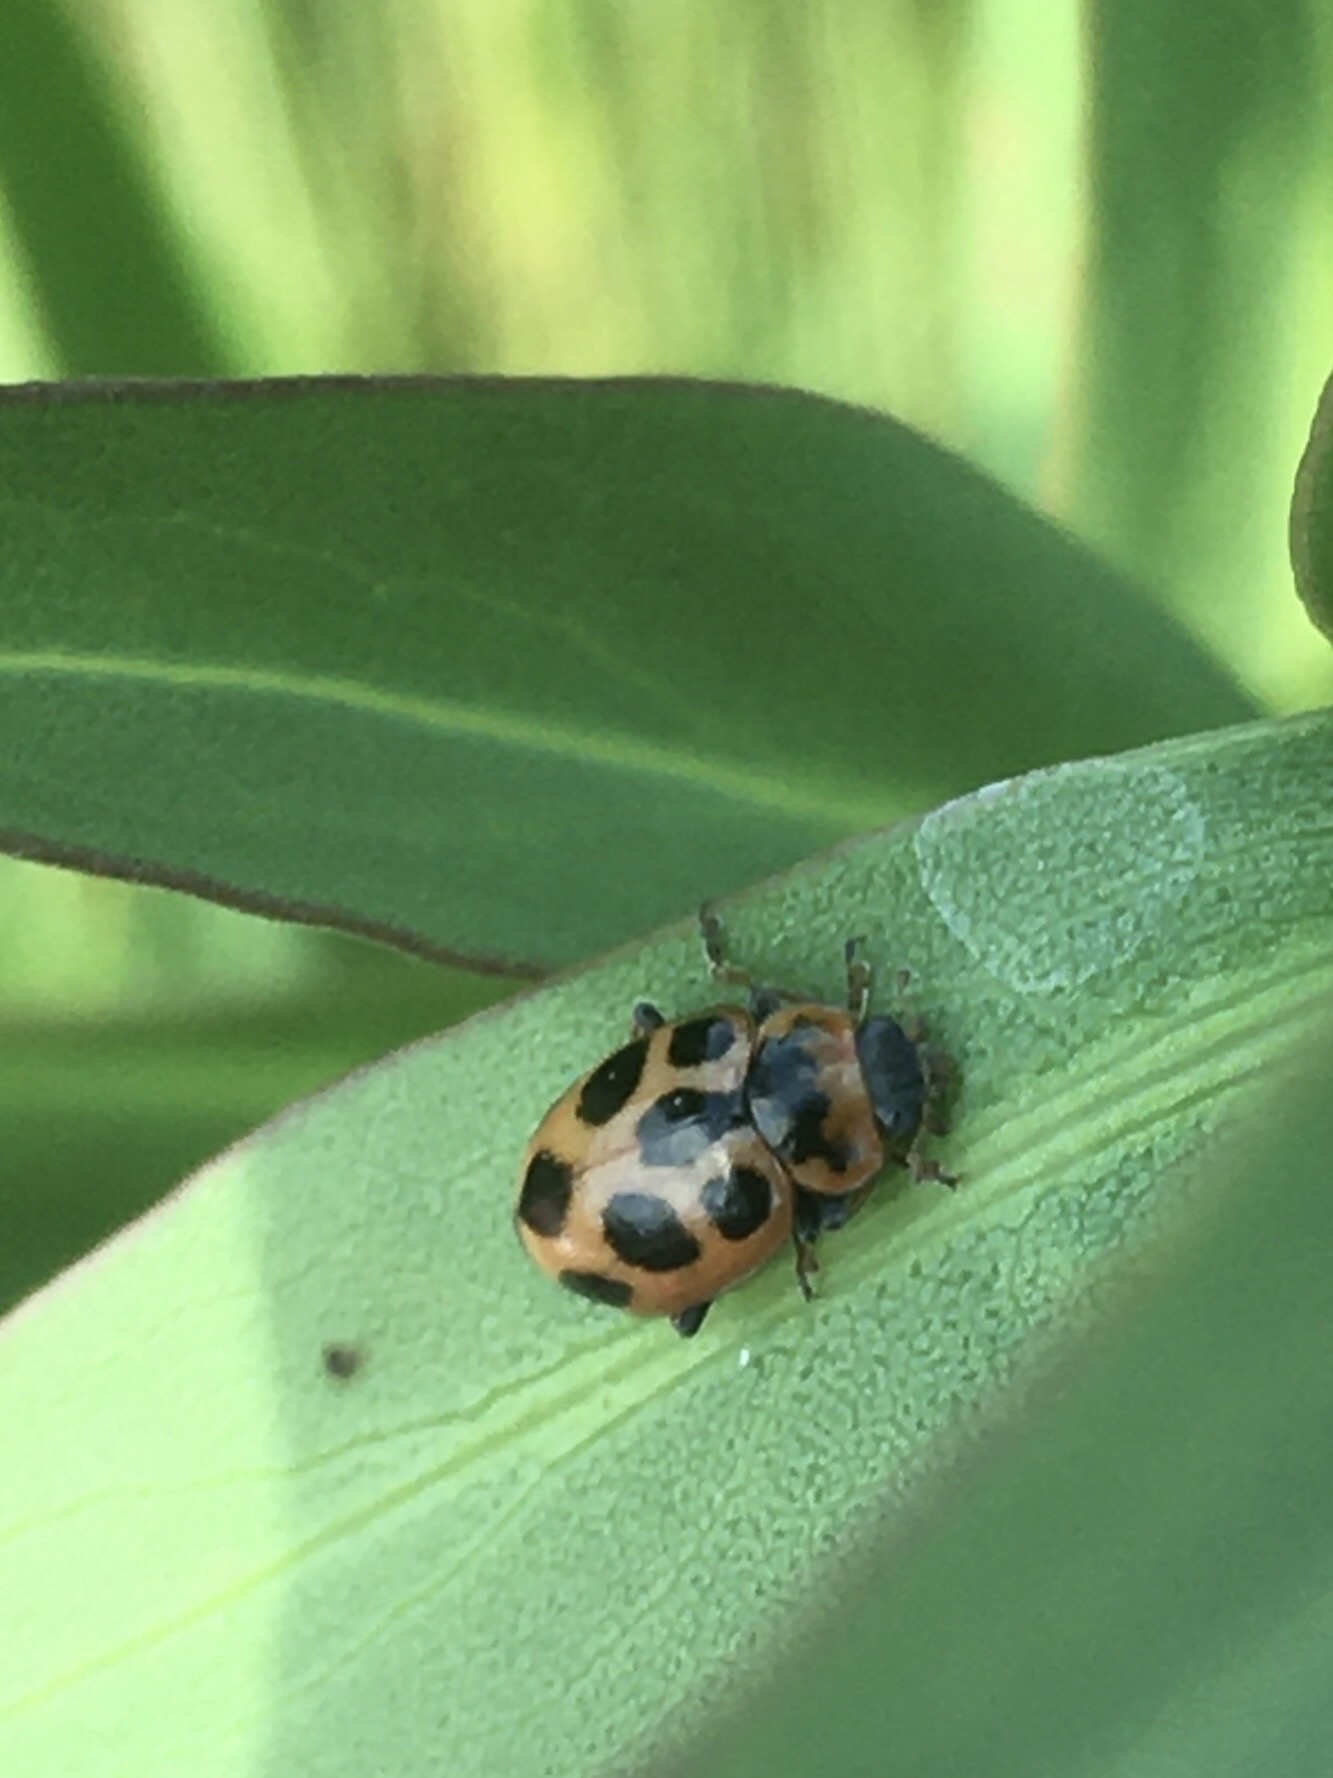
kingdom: Animalia
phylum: Arthropoda
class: Insecta
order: Coleoptera
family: Coccinellidae
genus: Naemia
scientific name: Naemia seriata
